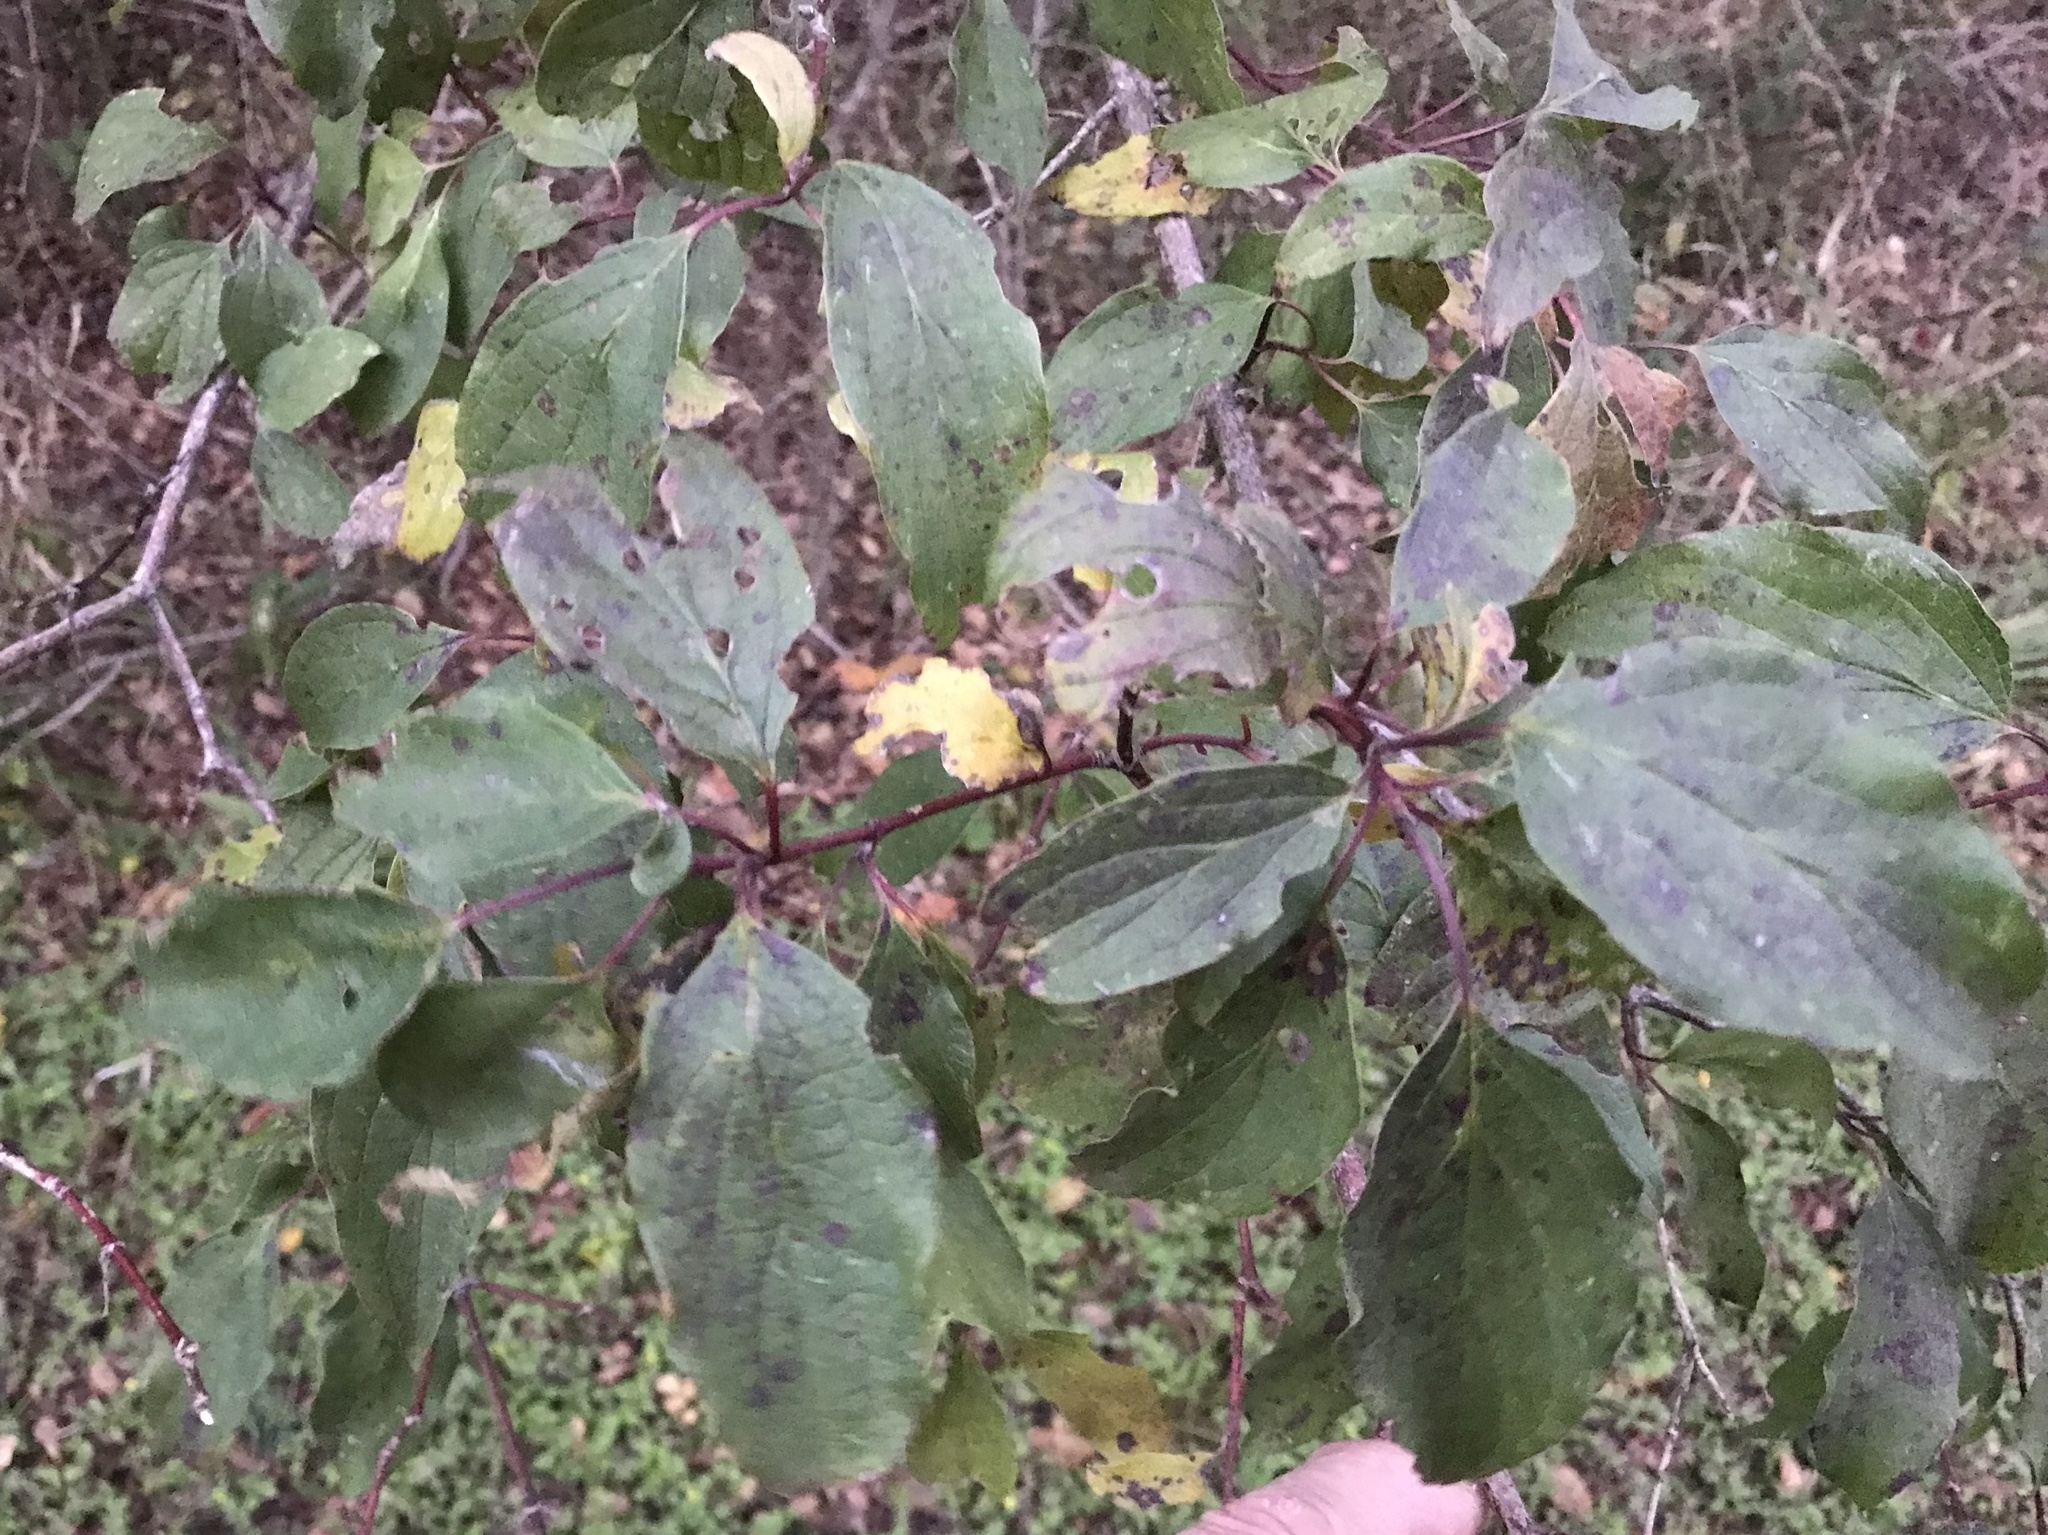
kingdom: Plantae
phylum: Tracheophyta
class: Magnoliopsida
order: Cornales
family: Cornaceae
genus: Cornus
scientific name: Cornus drummondii
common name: Rough-leaf dogwood
